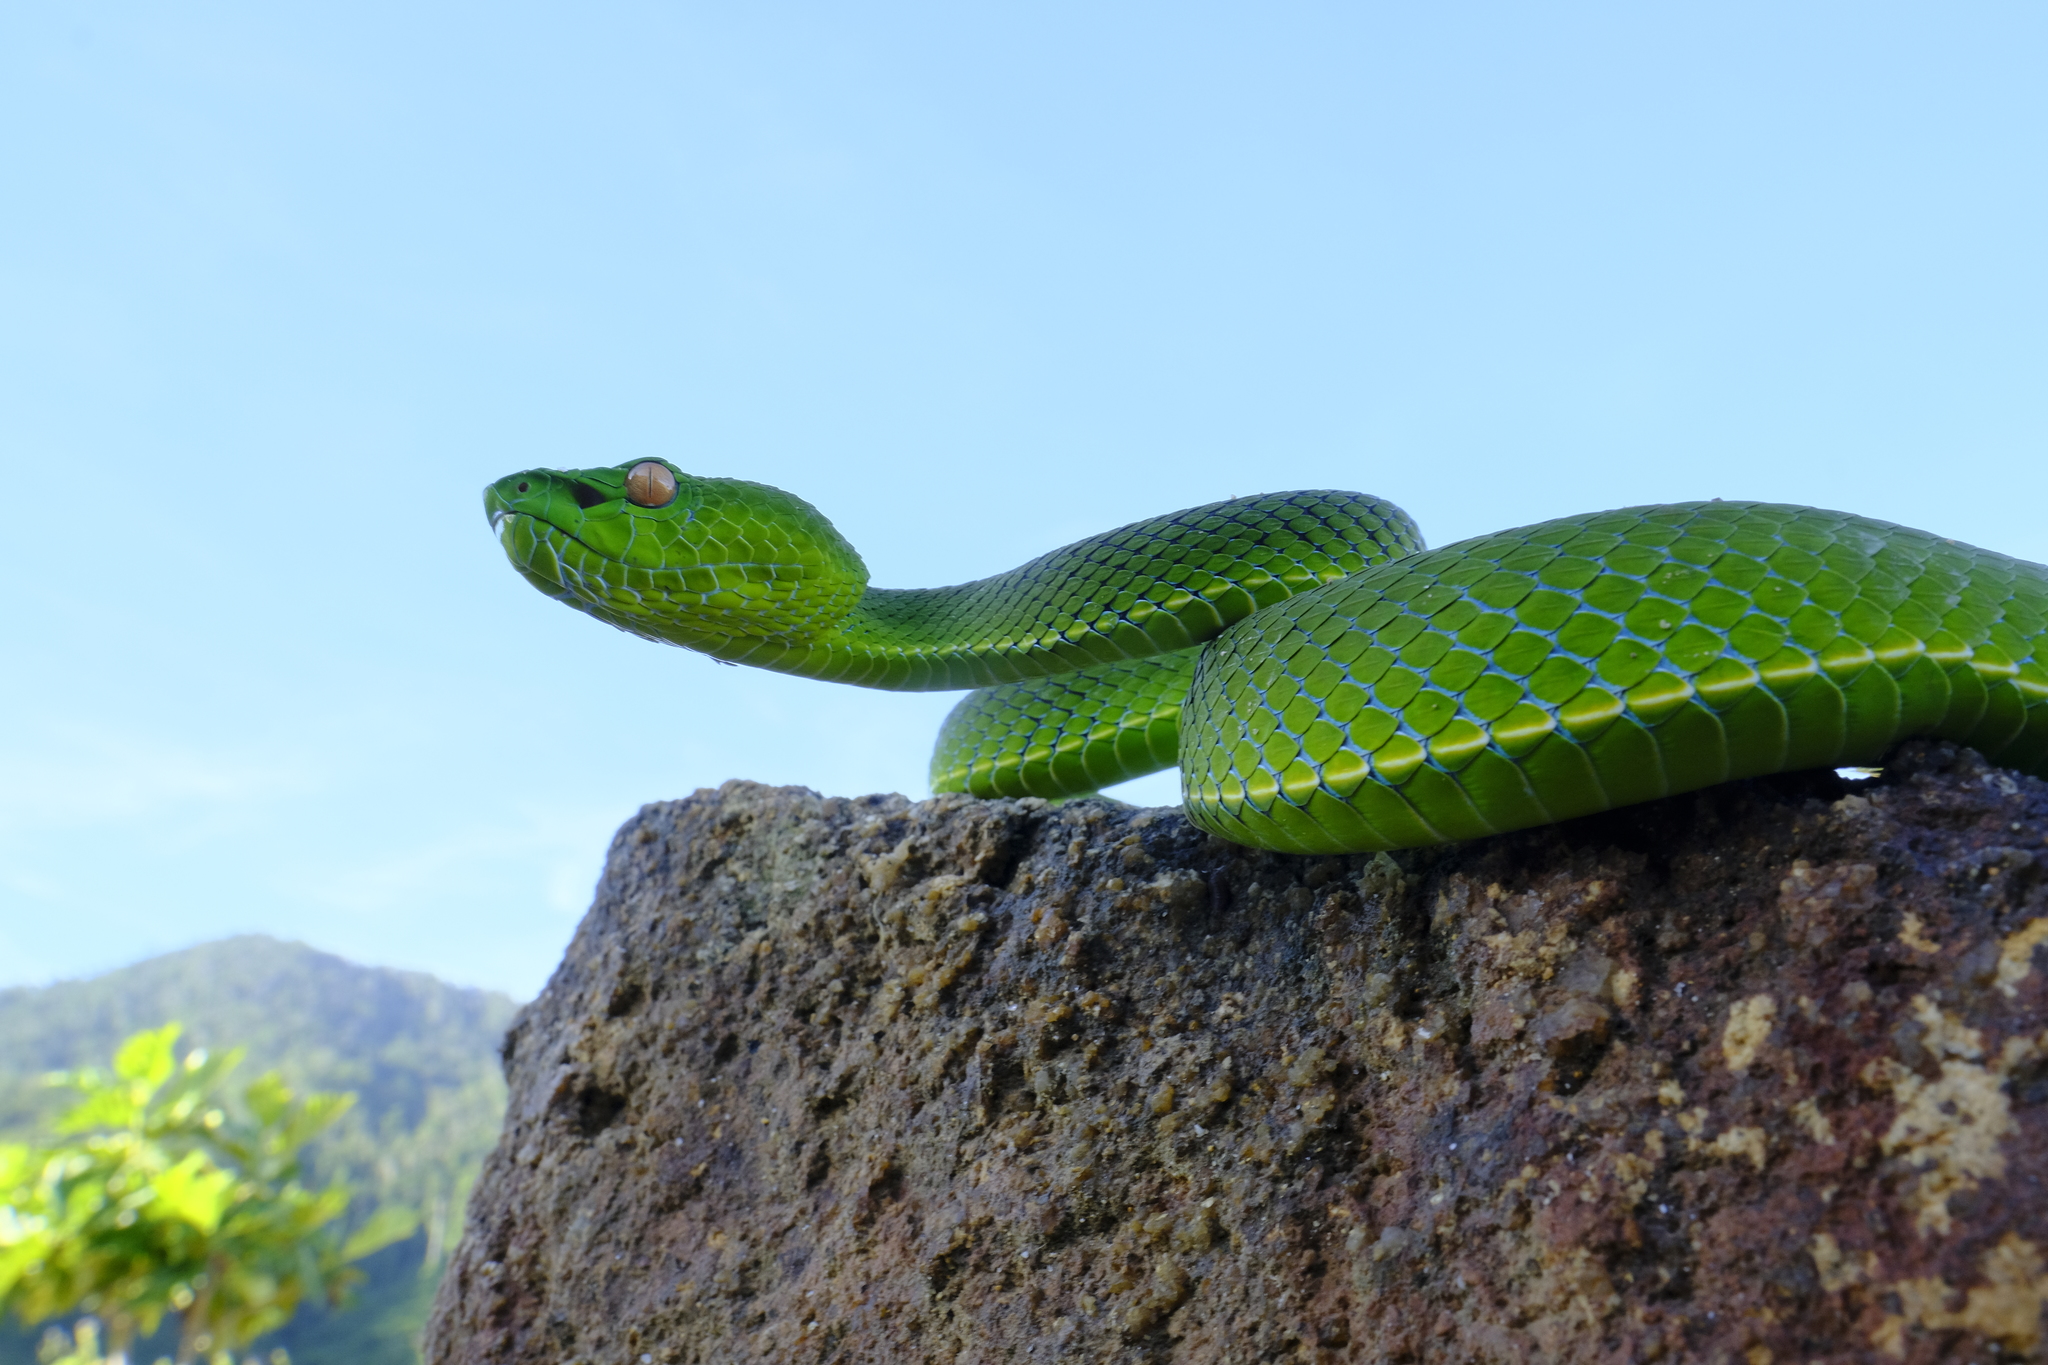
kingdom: Animalia
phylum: Chordata
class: Squamata
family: Viperidae
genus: Trimeresurus
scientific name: Trimeresurus vogeli
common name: Vogel's pit viper
